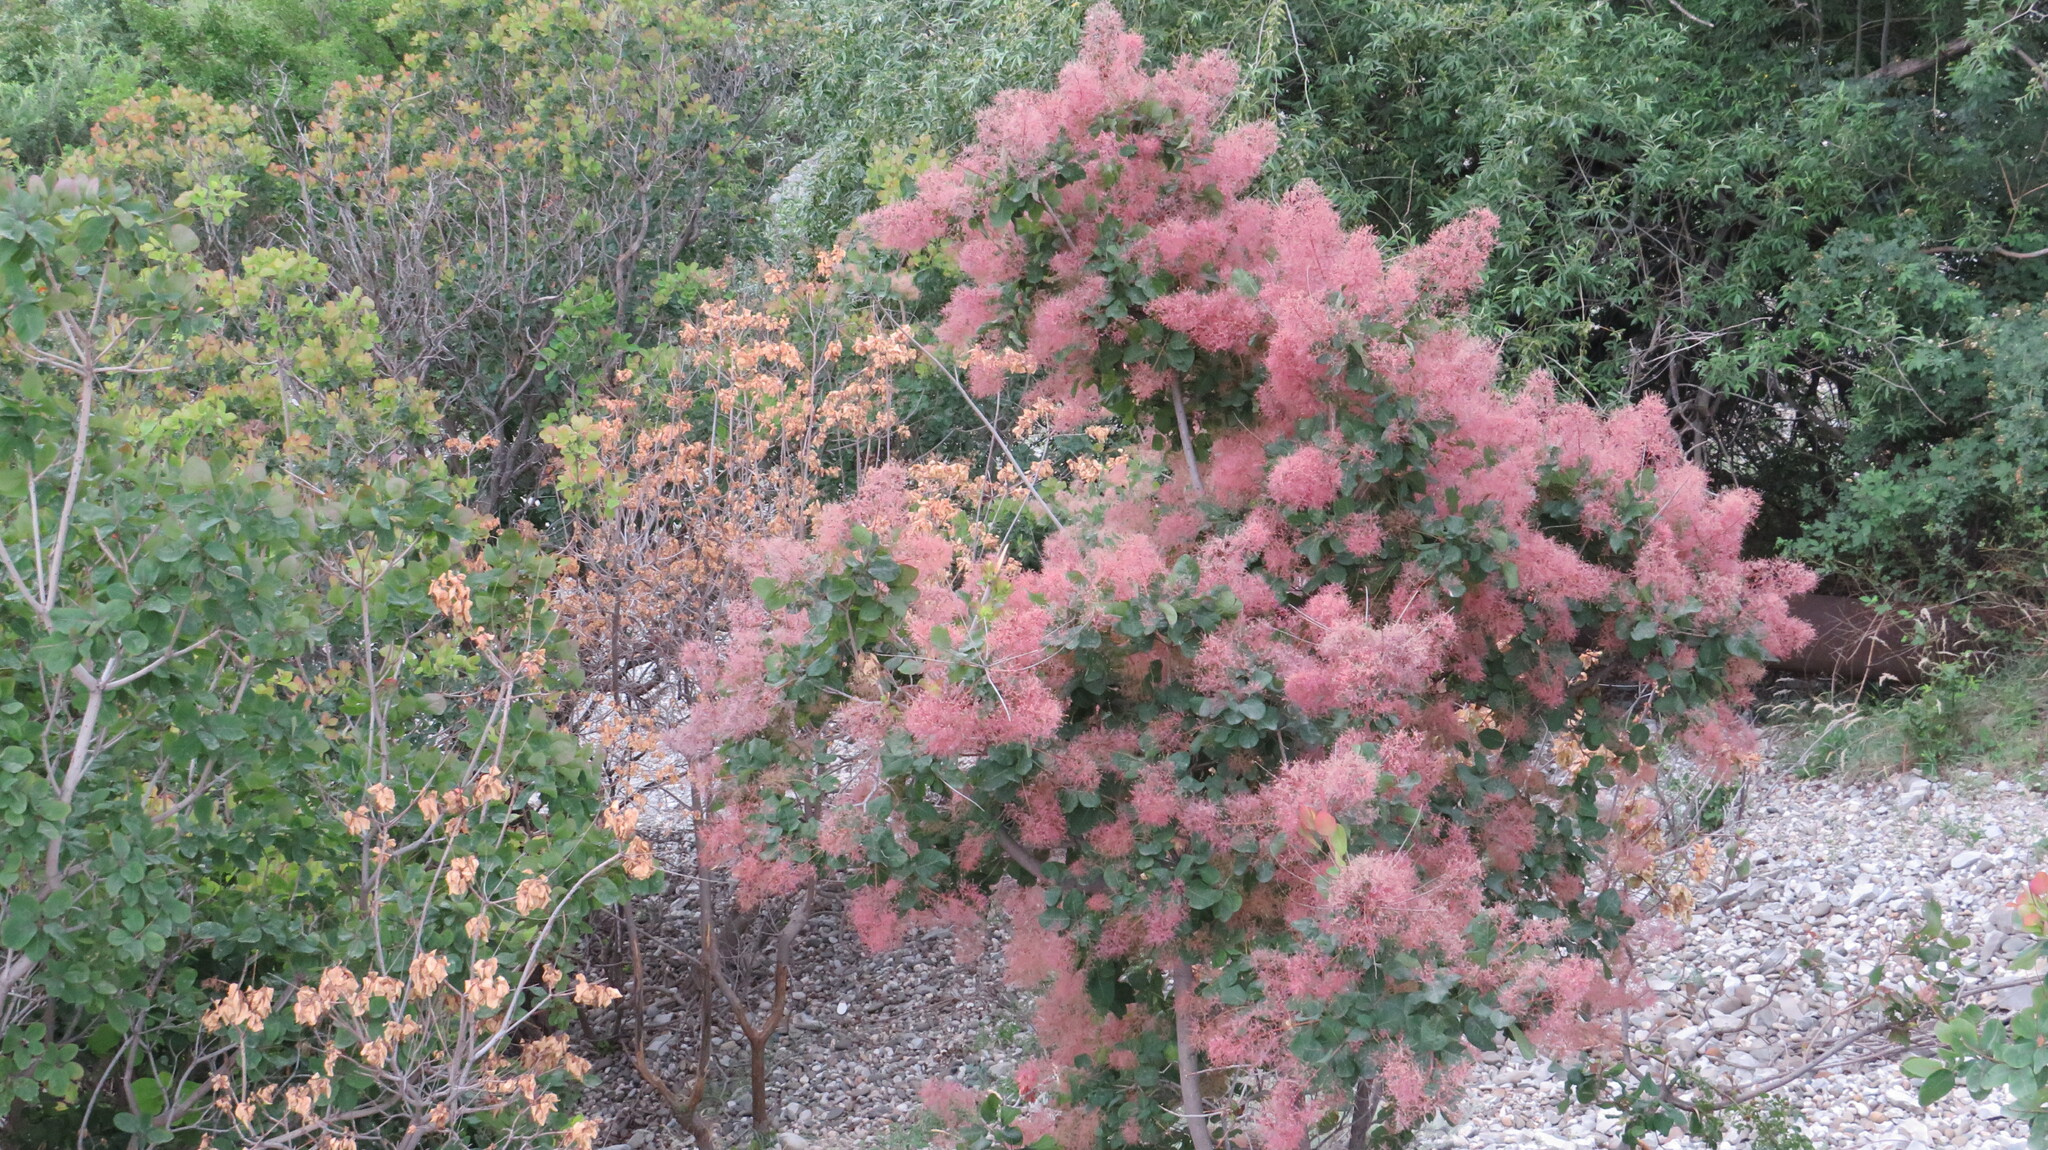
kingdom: Plantae
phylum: Tracheophyta
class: Magnoliopsida
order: Sapindales
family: Anacardiaceae
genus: Cotinus
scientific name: Cotinus coggygria
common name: Smoke-tree
